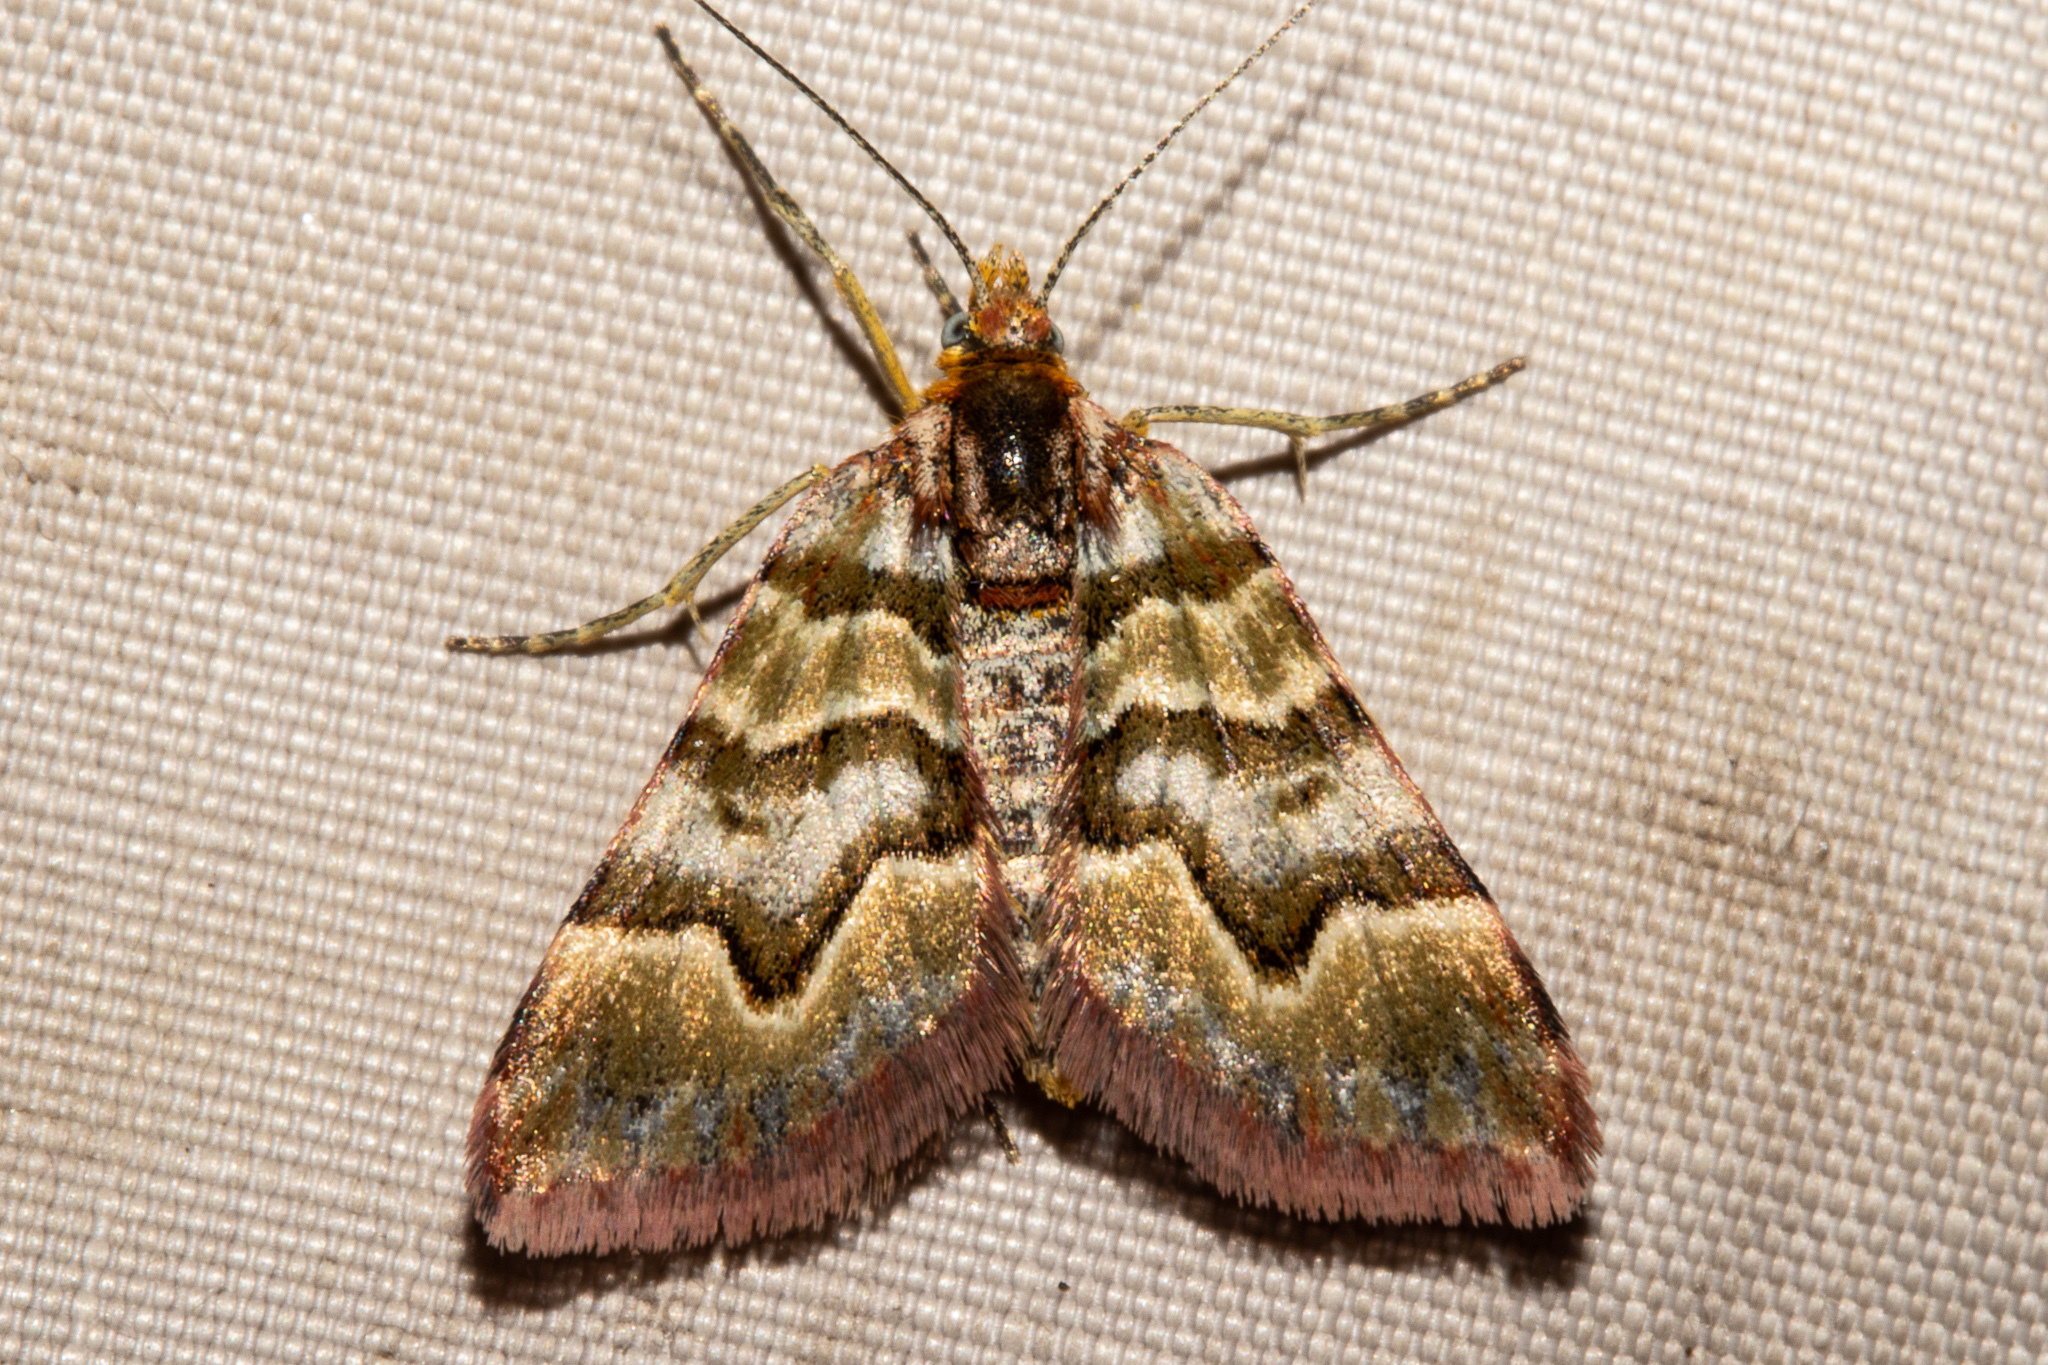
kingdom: Animalia
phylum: Arthropoda
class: Insecta
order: Lepidoptera
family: Geometridae
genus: Arctesthes
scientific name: Arctesthes siris
